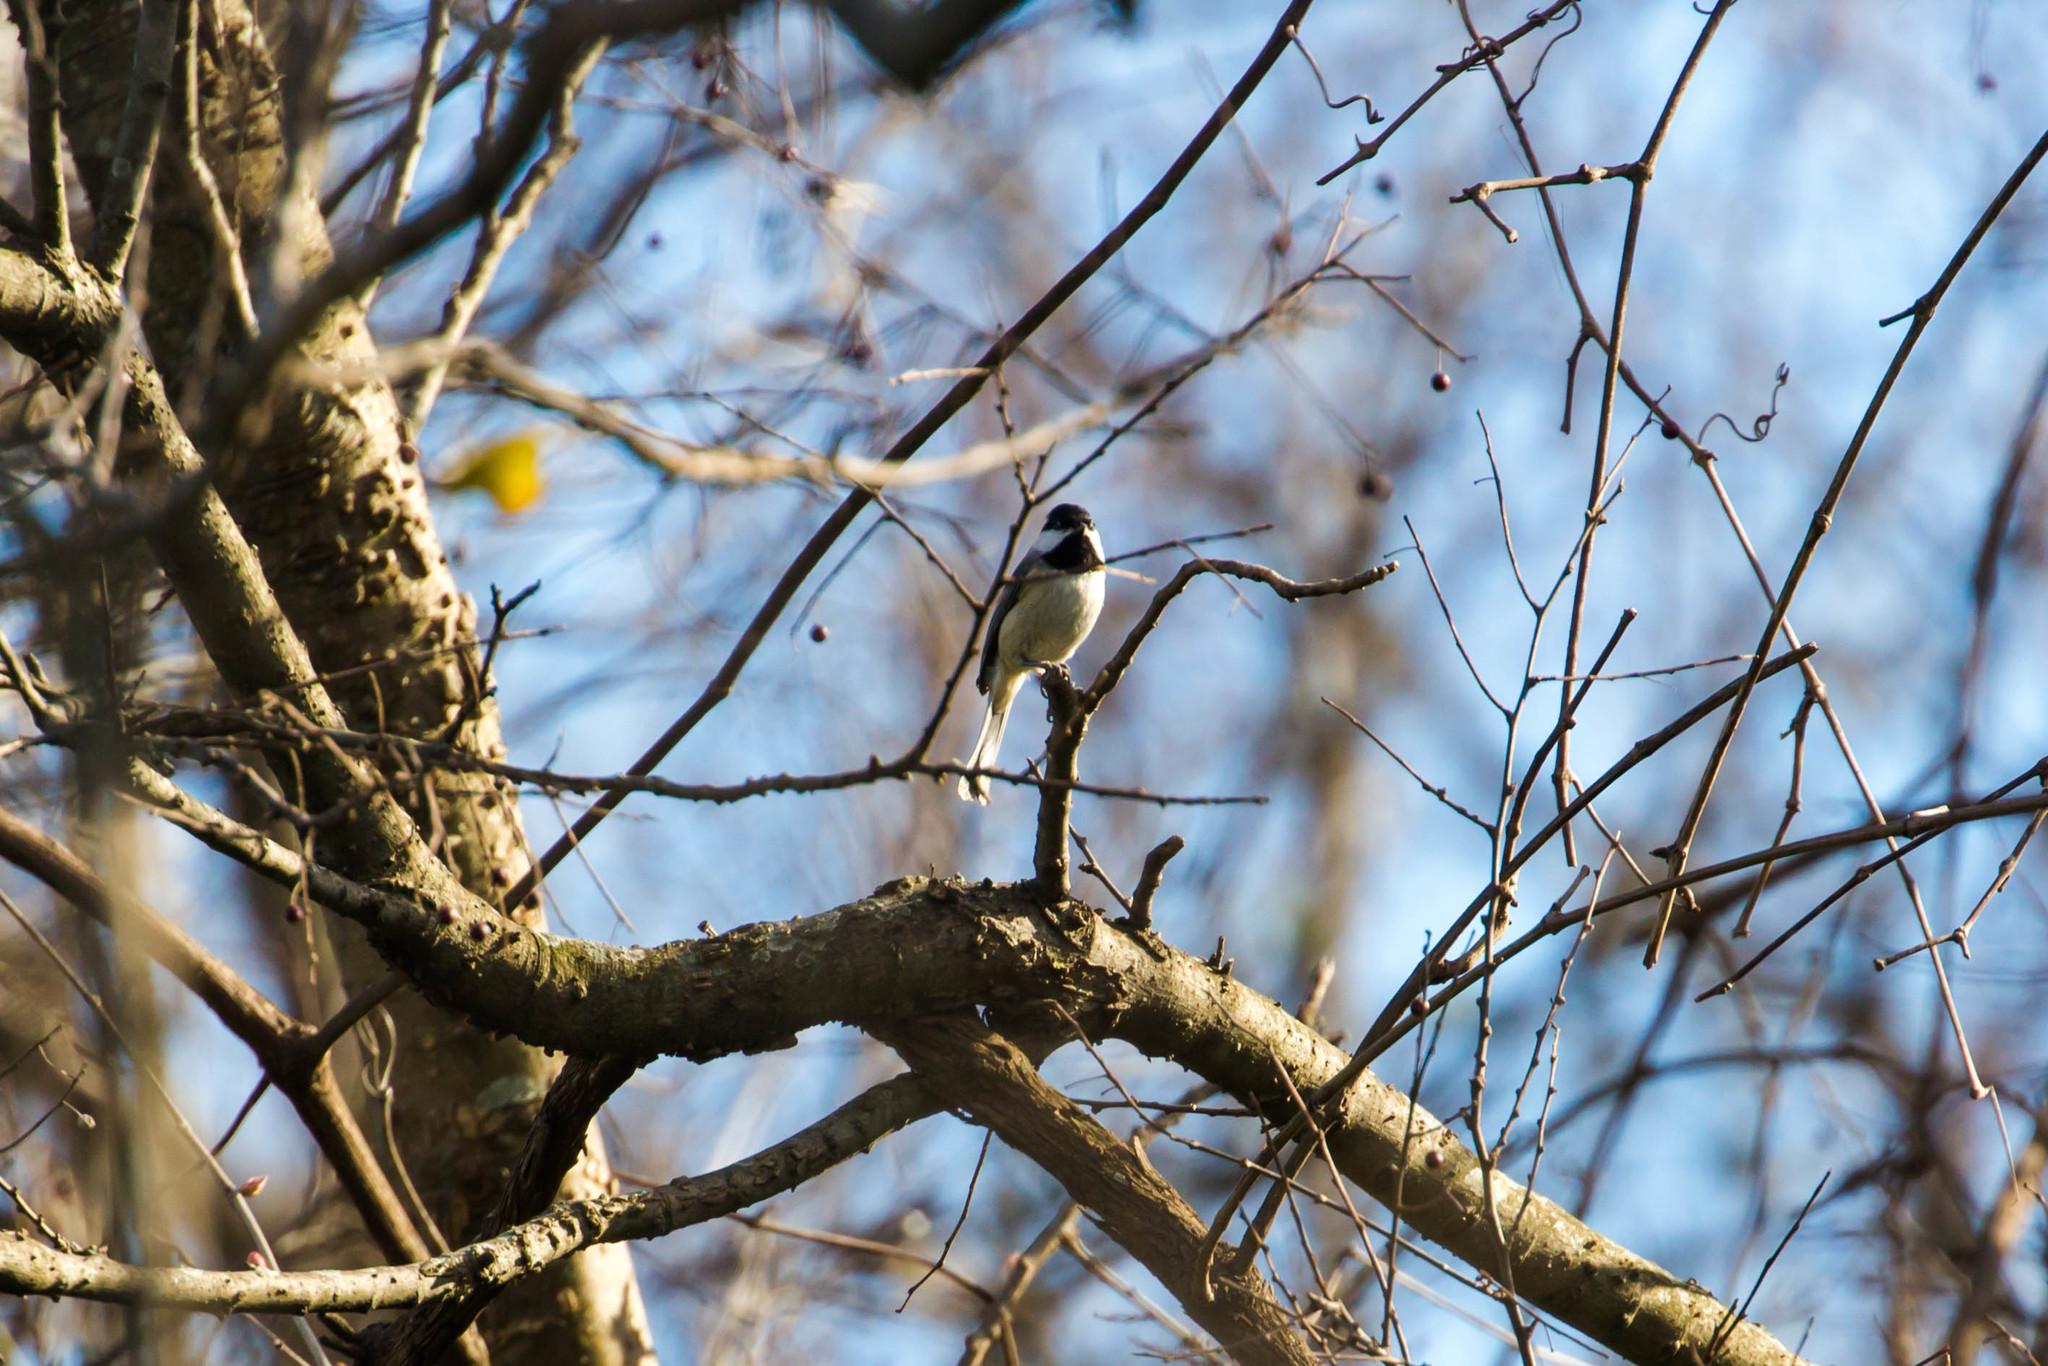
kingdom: Animalia
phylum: Chordata
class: Aves
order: Passeriformes
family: Paridae
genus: Poecile
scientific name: Poecile carolinensis
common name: Carolina chickadee
